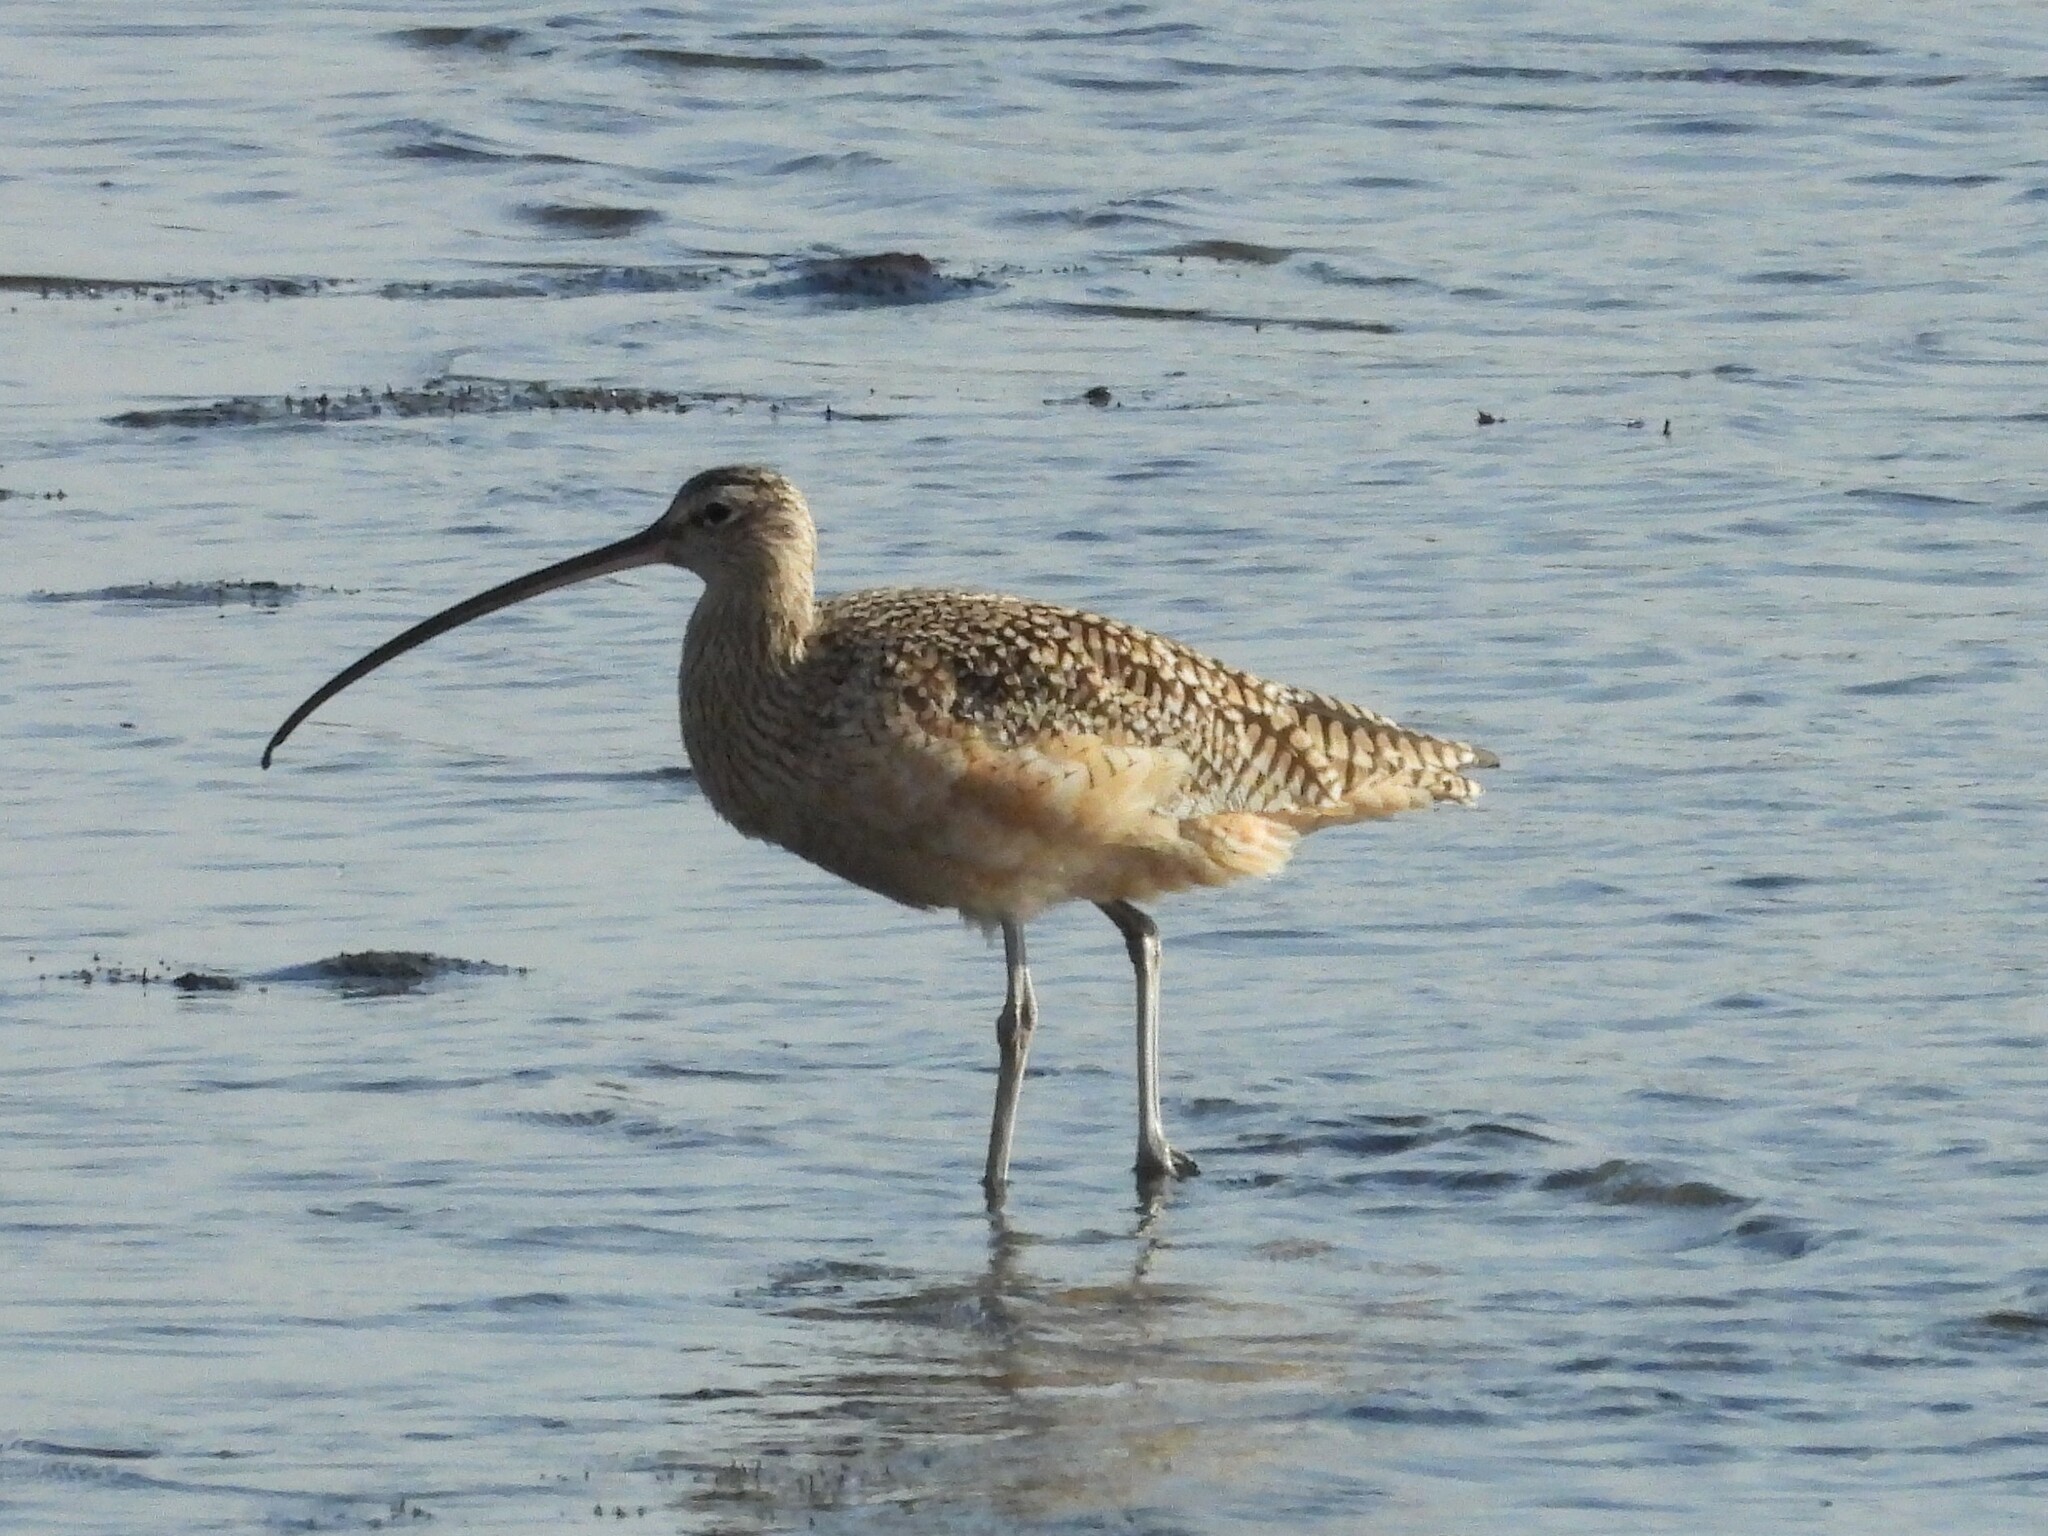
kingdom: Animalia
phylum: Chordata
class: Aves
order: Charadriiformes
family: Scolopacidae
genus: Numenius
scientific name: Numenius americanus
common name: Long-billed curlew
